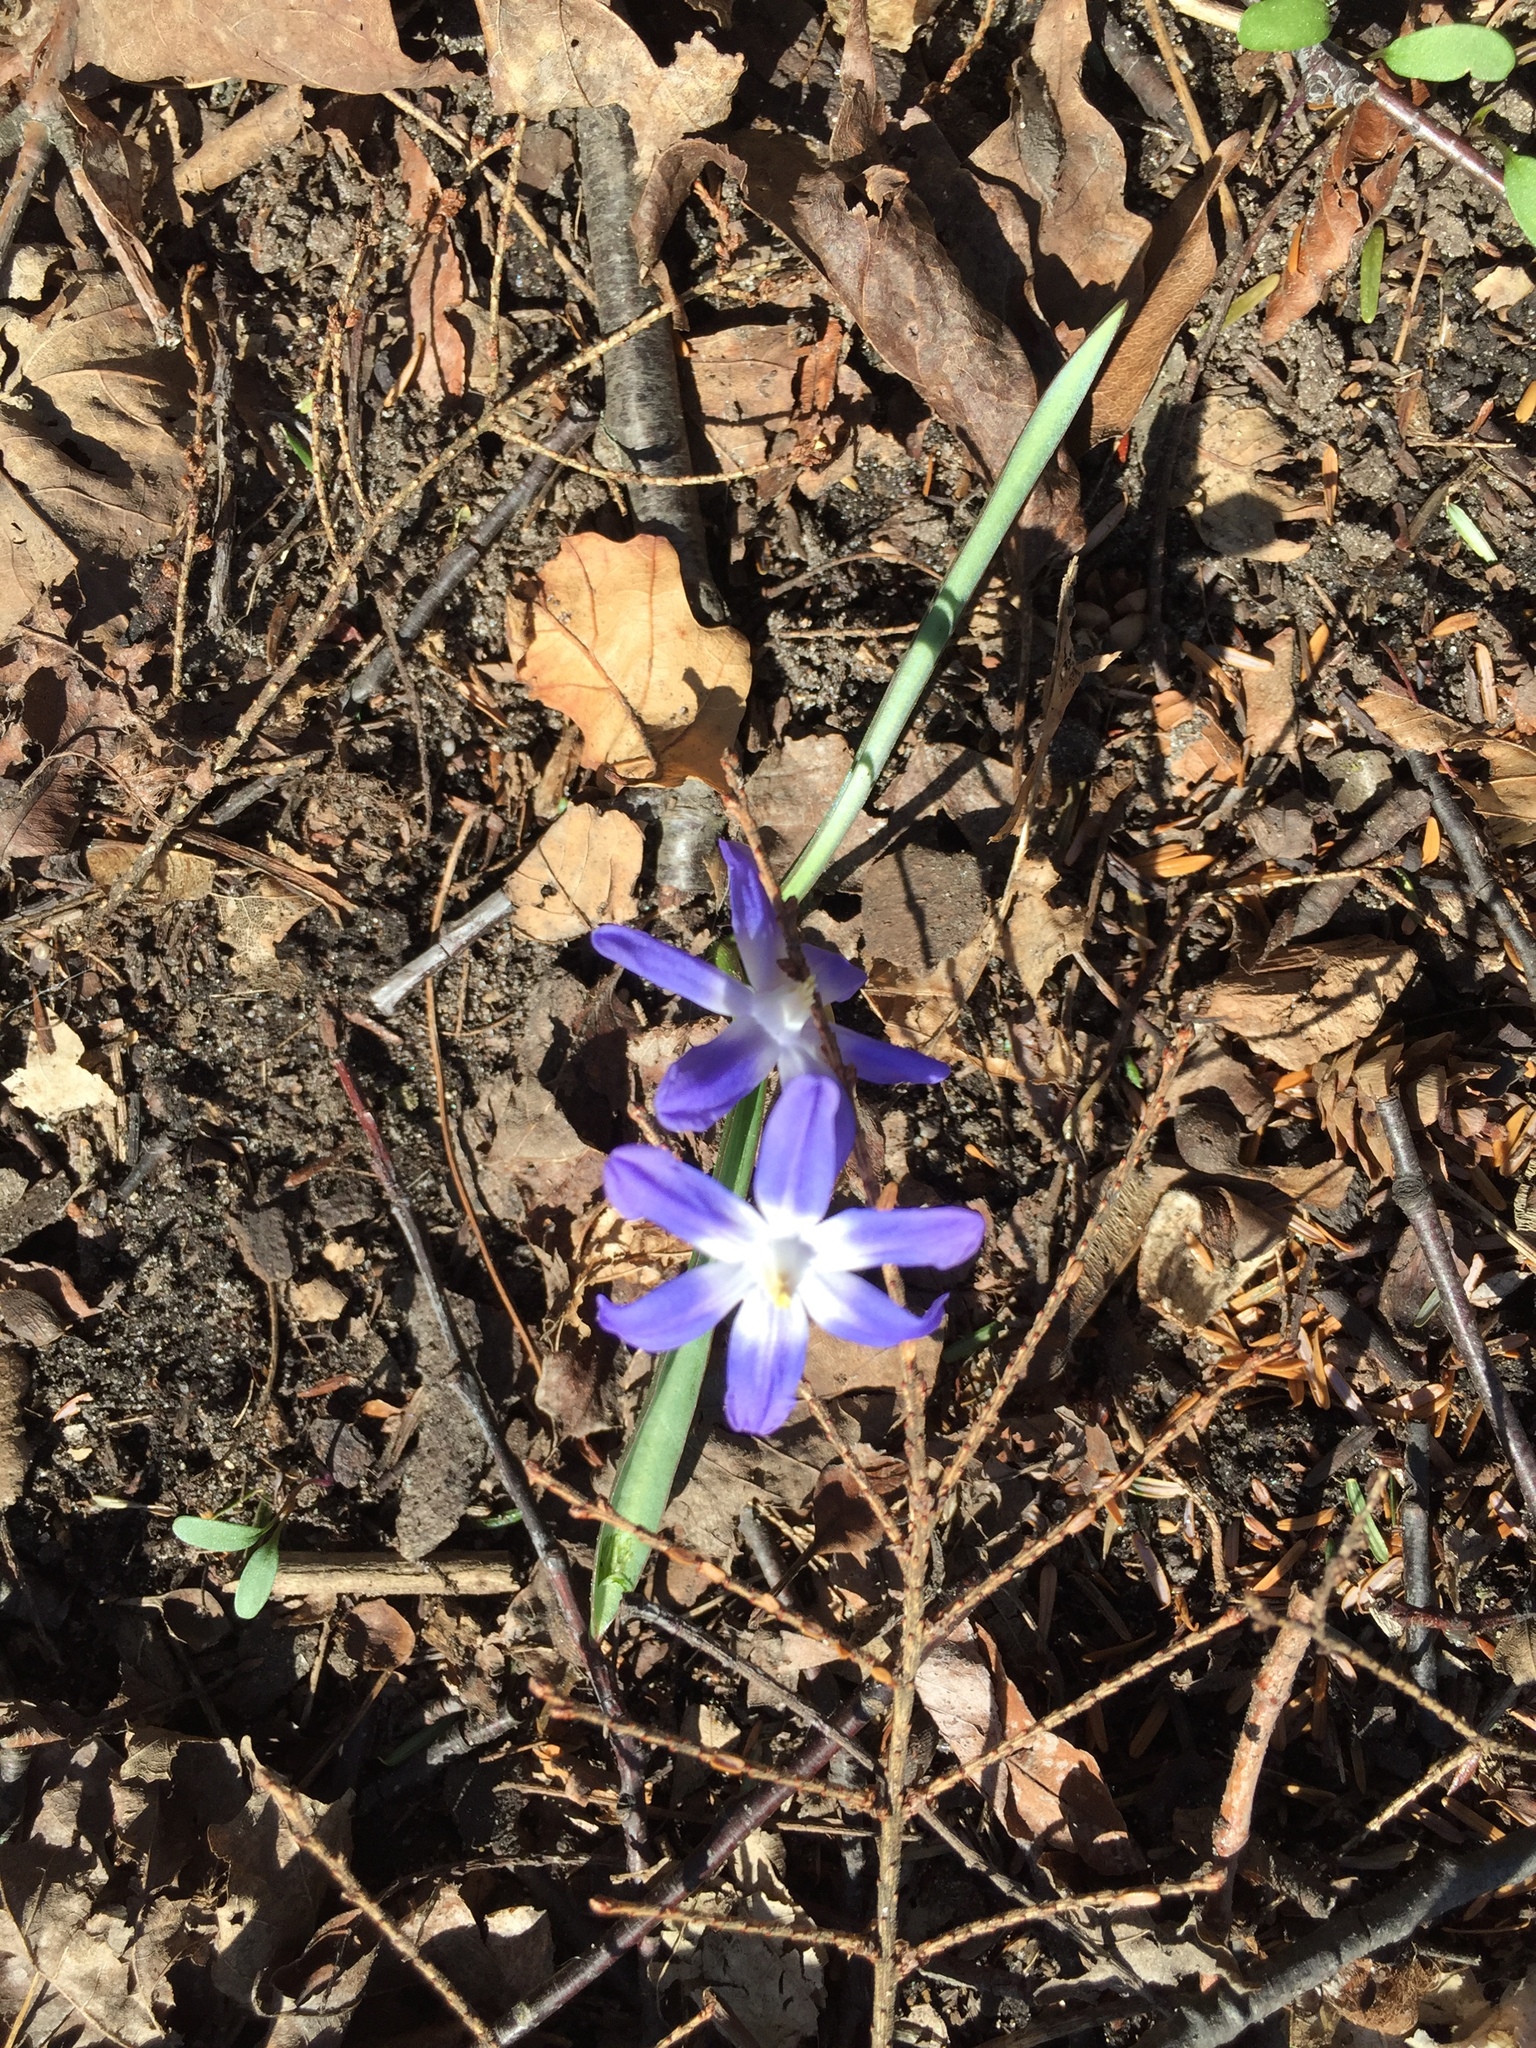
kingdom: Plantae
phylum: Tracheophyta
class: Liliopsida
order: Asparagales
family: Asparagaceae
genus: Scilla
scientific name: Scilla forbesii
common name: Glory-of-the-snow
